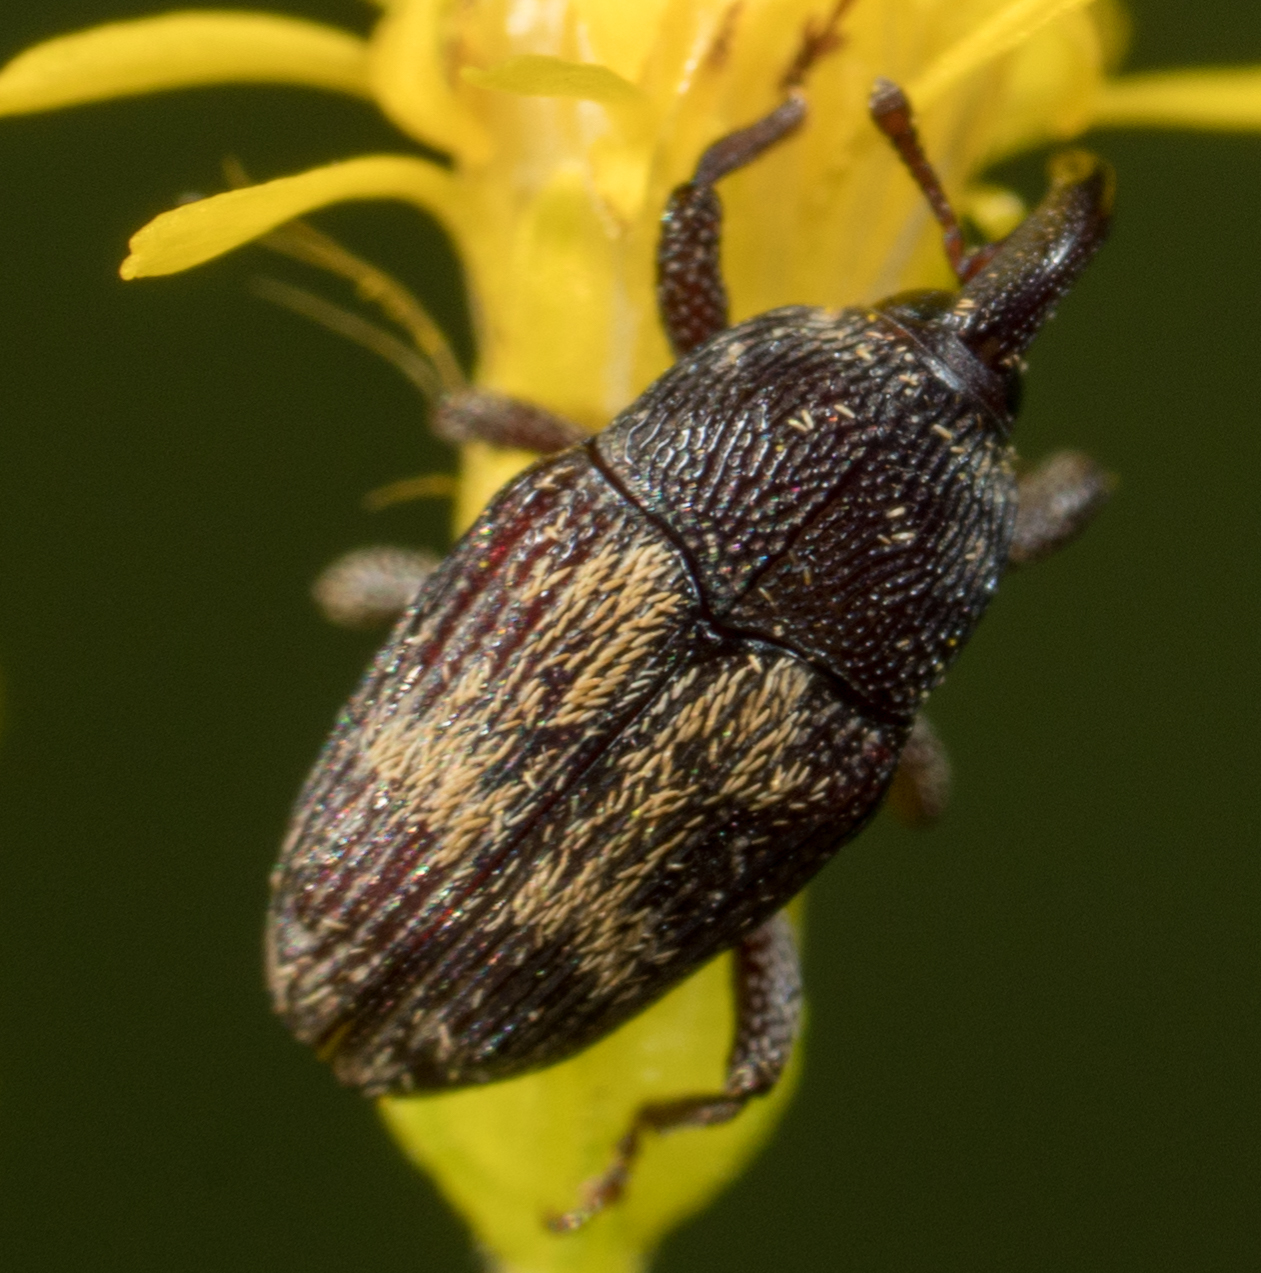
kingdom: Animalia
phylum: Arthropoda
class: Insecta
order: Coleoptera
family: Curculionidae
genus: Glyptobaris
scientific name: Glyptobaris lecontei
